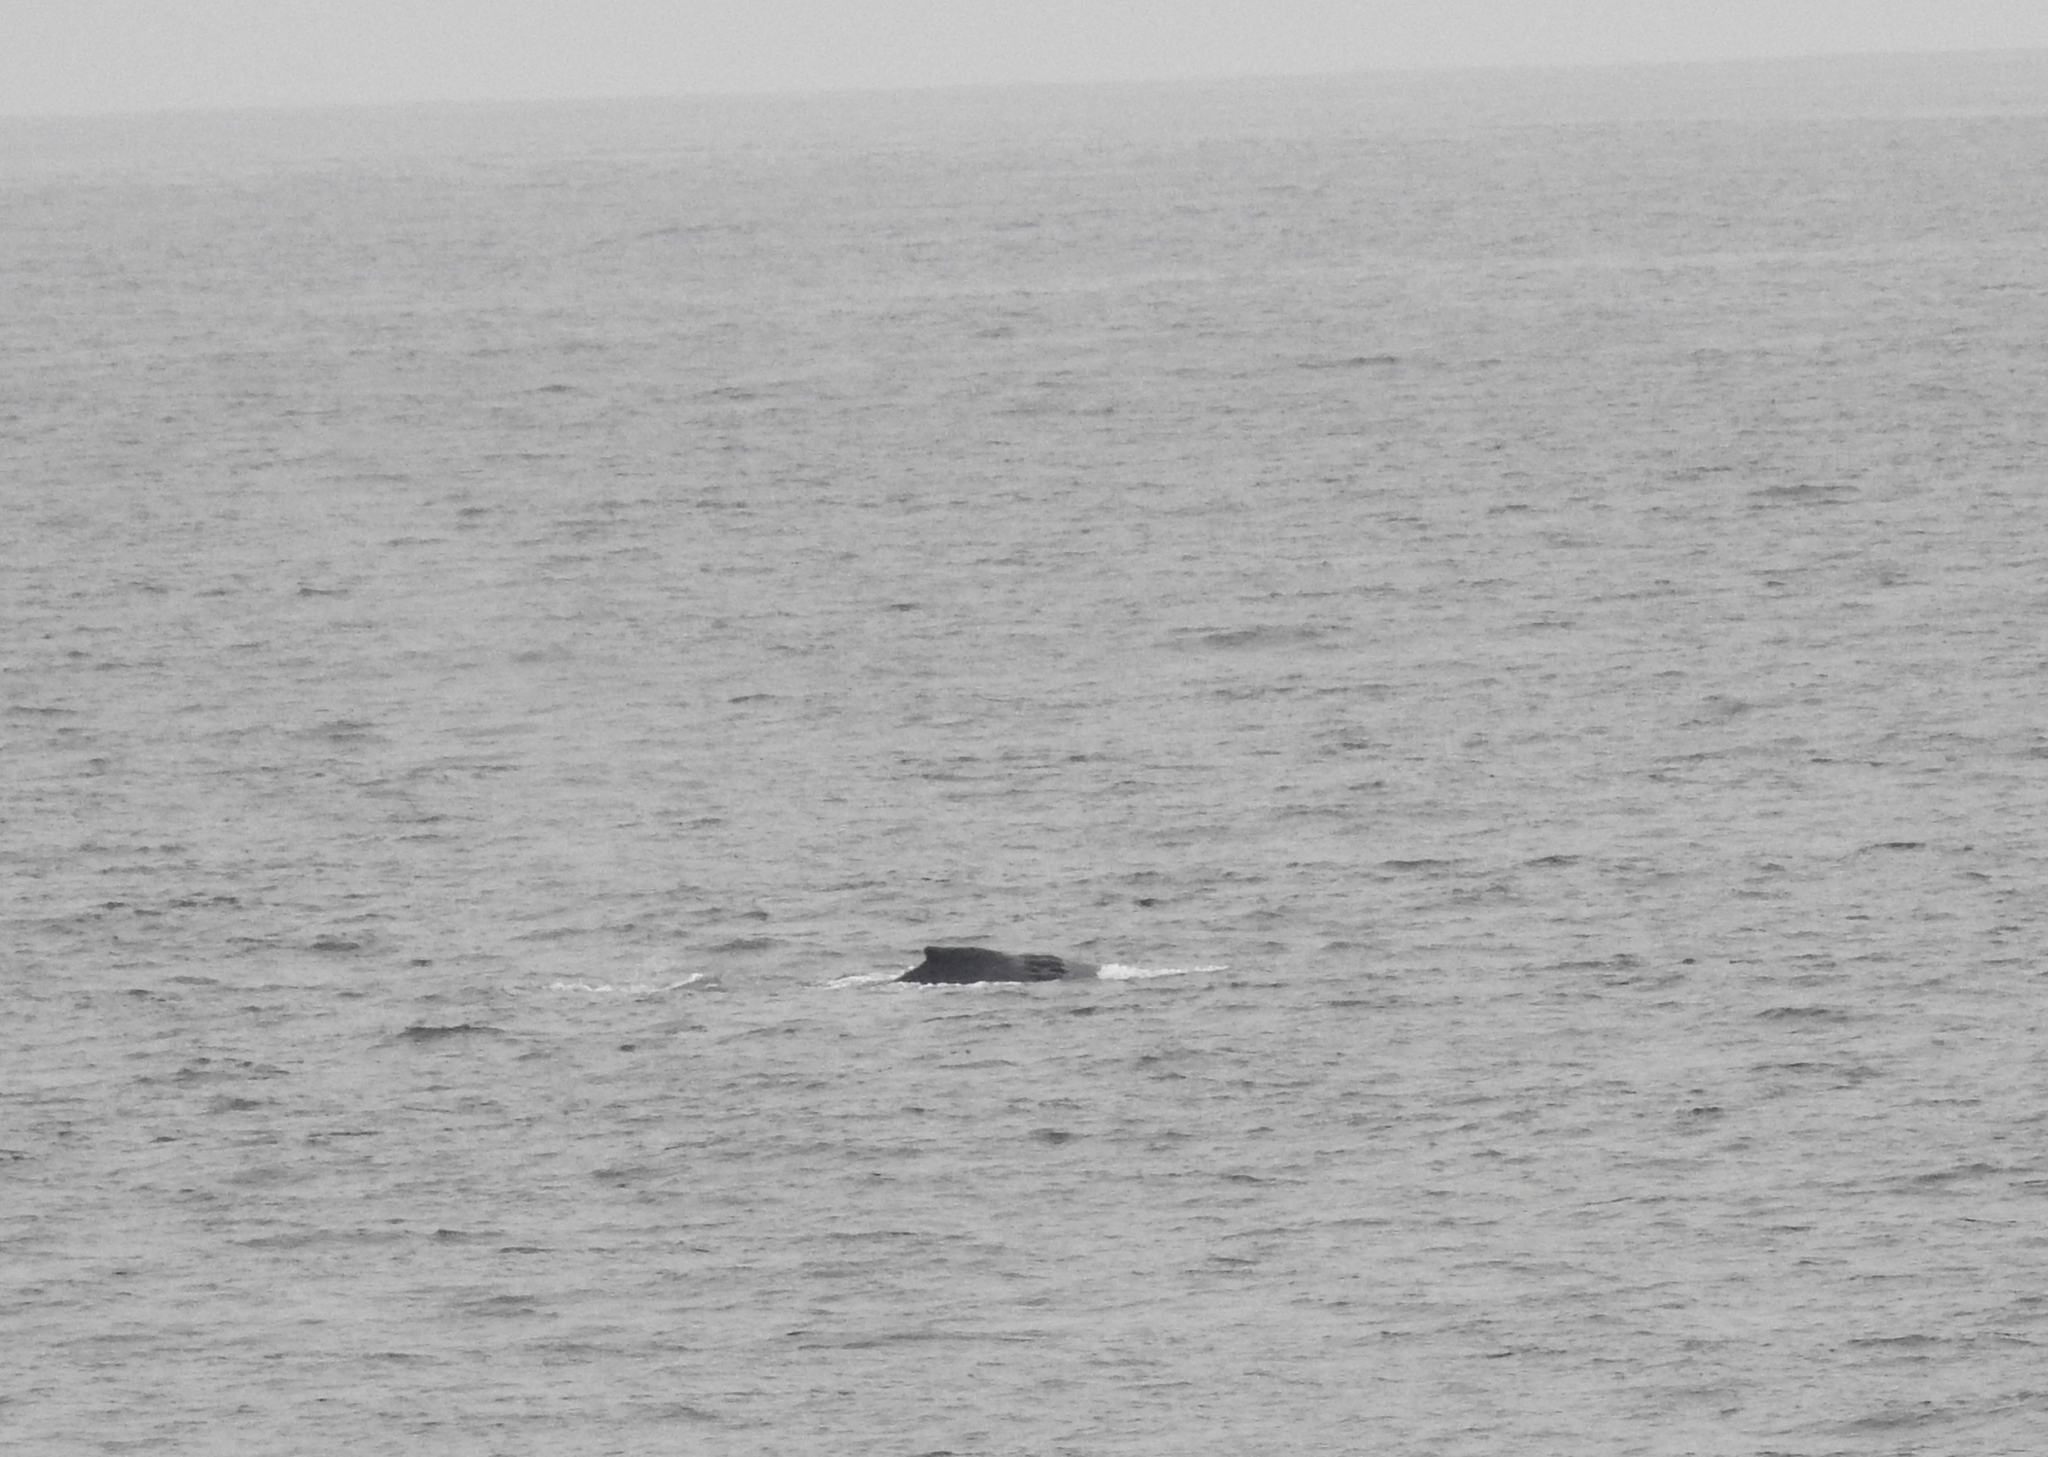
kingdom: Animalia
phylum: Chordata
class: Mammalia
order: Cetacea
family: Balaenopteridae
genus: Megaptera
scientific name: Megaptera novaeangliae
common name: Humpback whale
